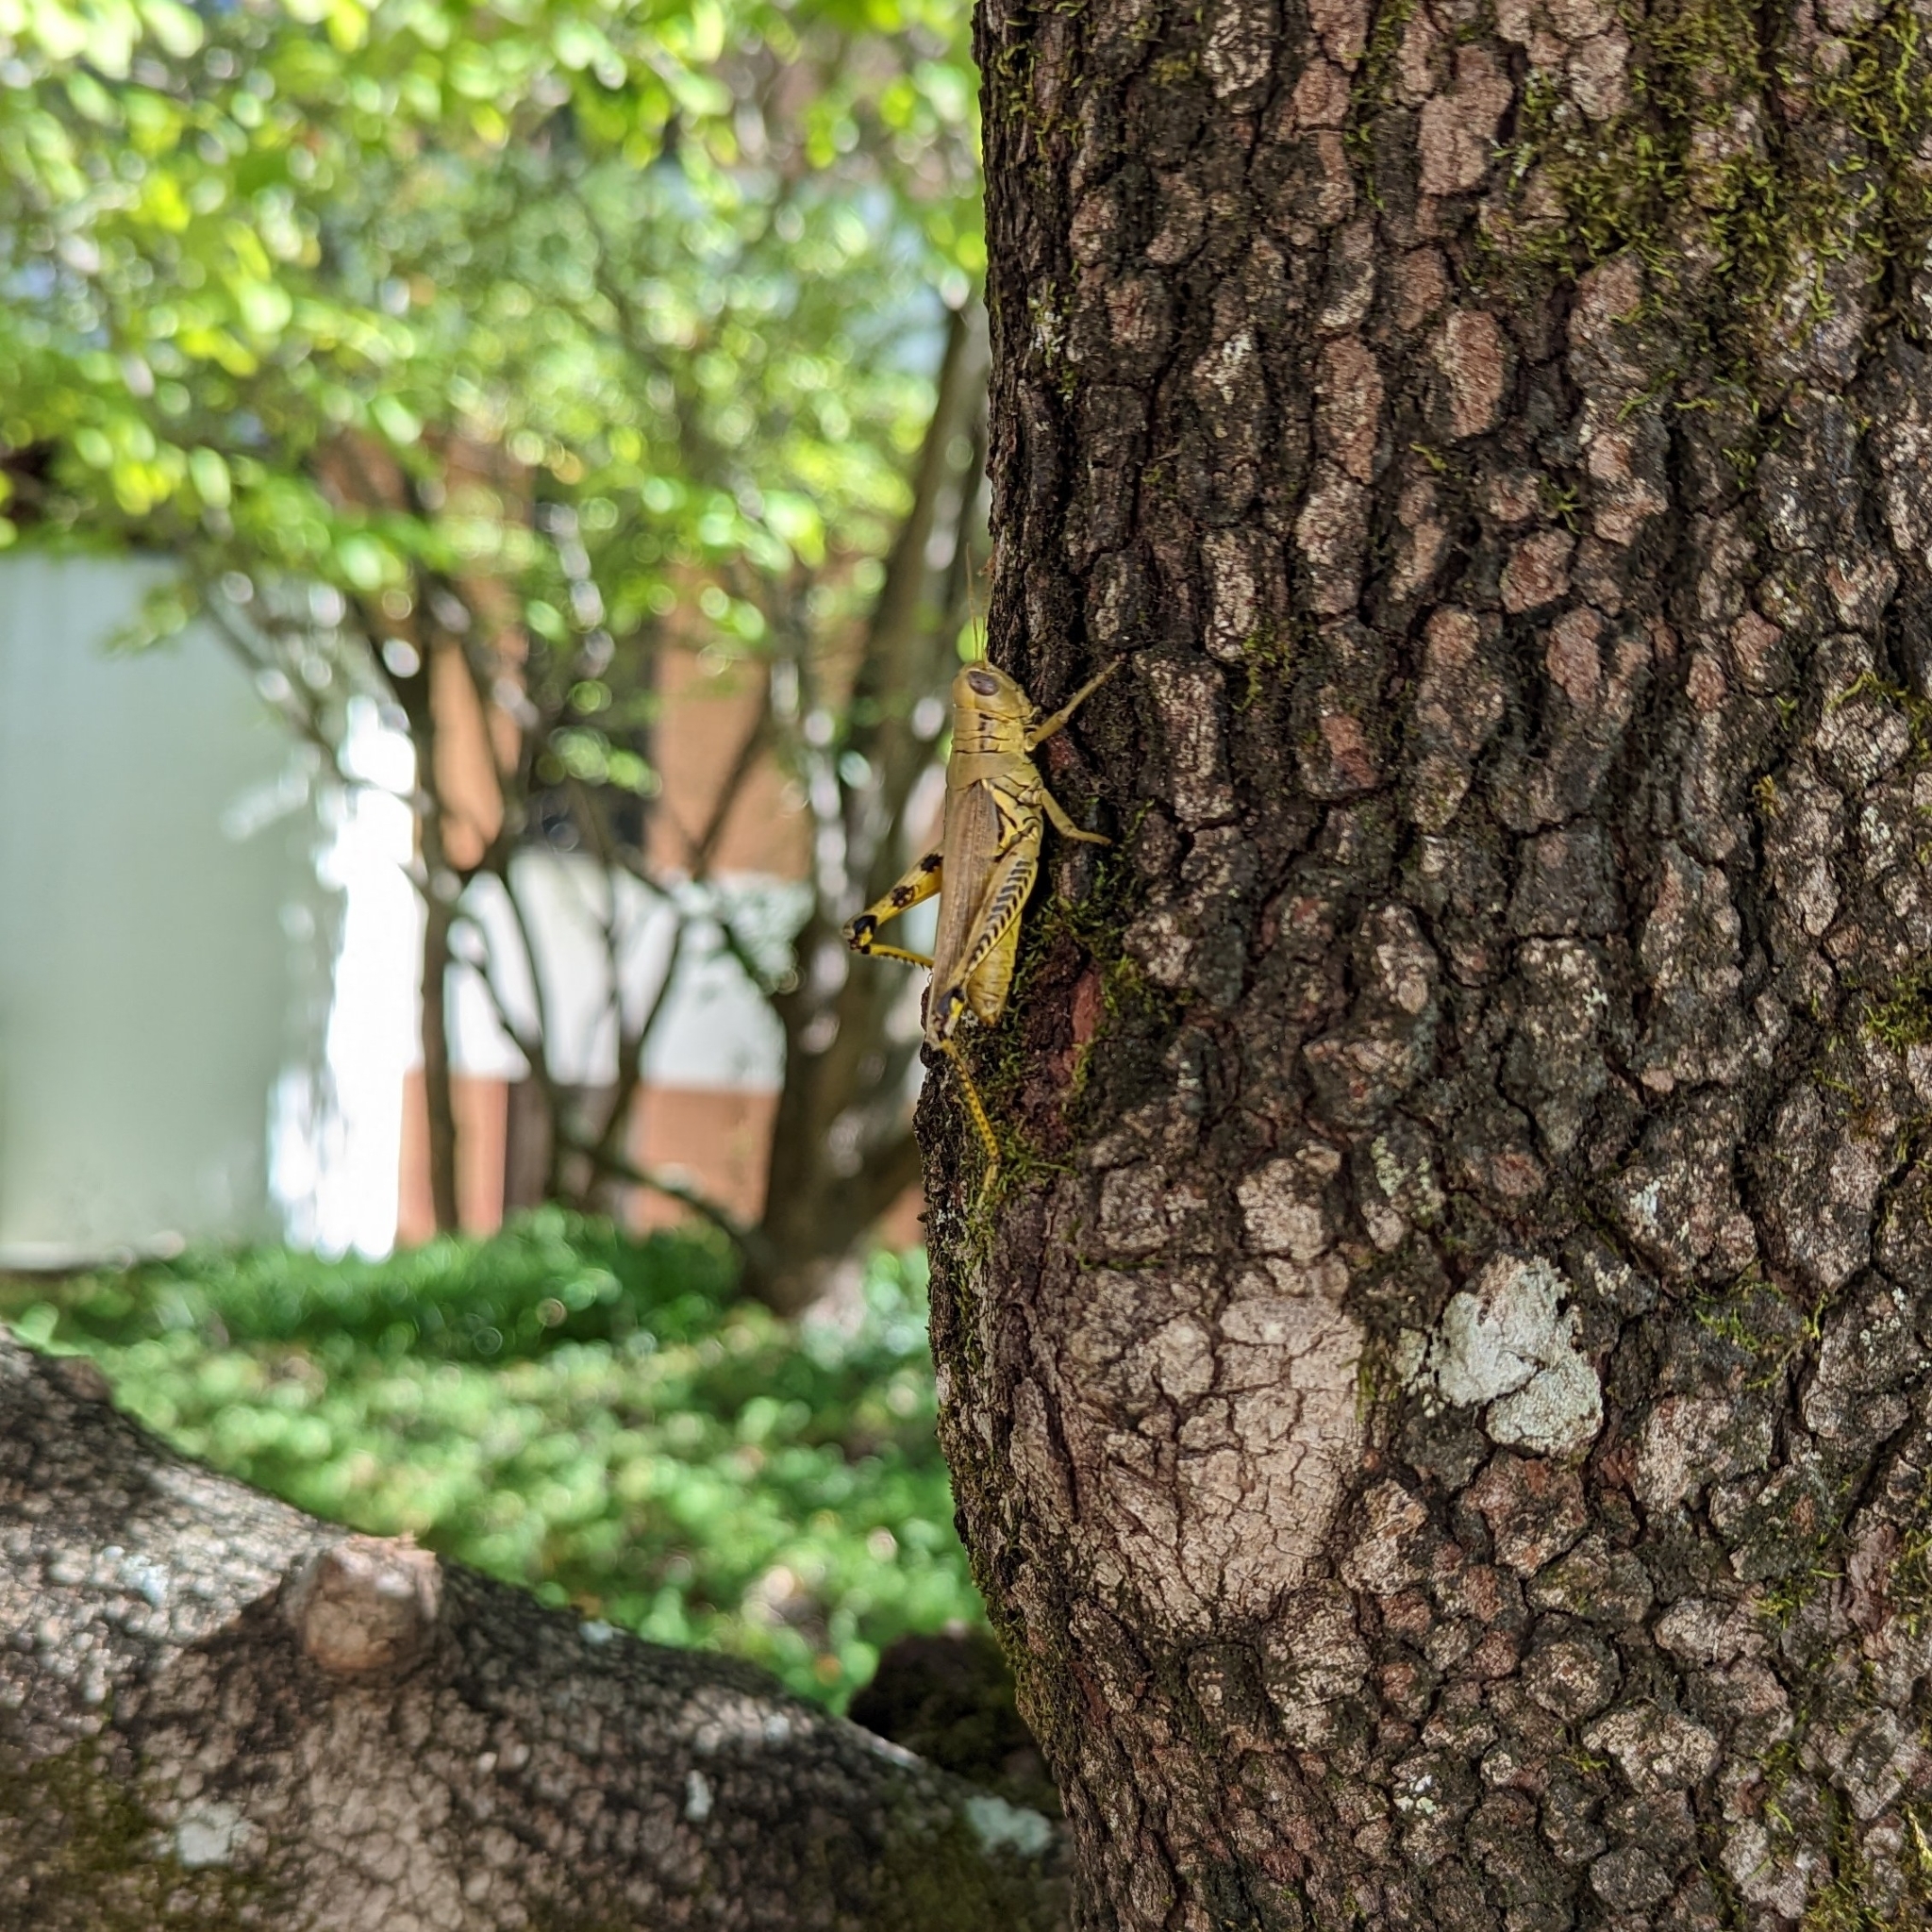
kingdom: Animalia
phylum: Arthropoda
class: Insecta
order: Orthoptera
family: Acrididae
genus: Melanoplus
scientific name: Melanoplus differentialis
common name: Differential grasshopper
